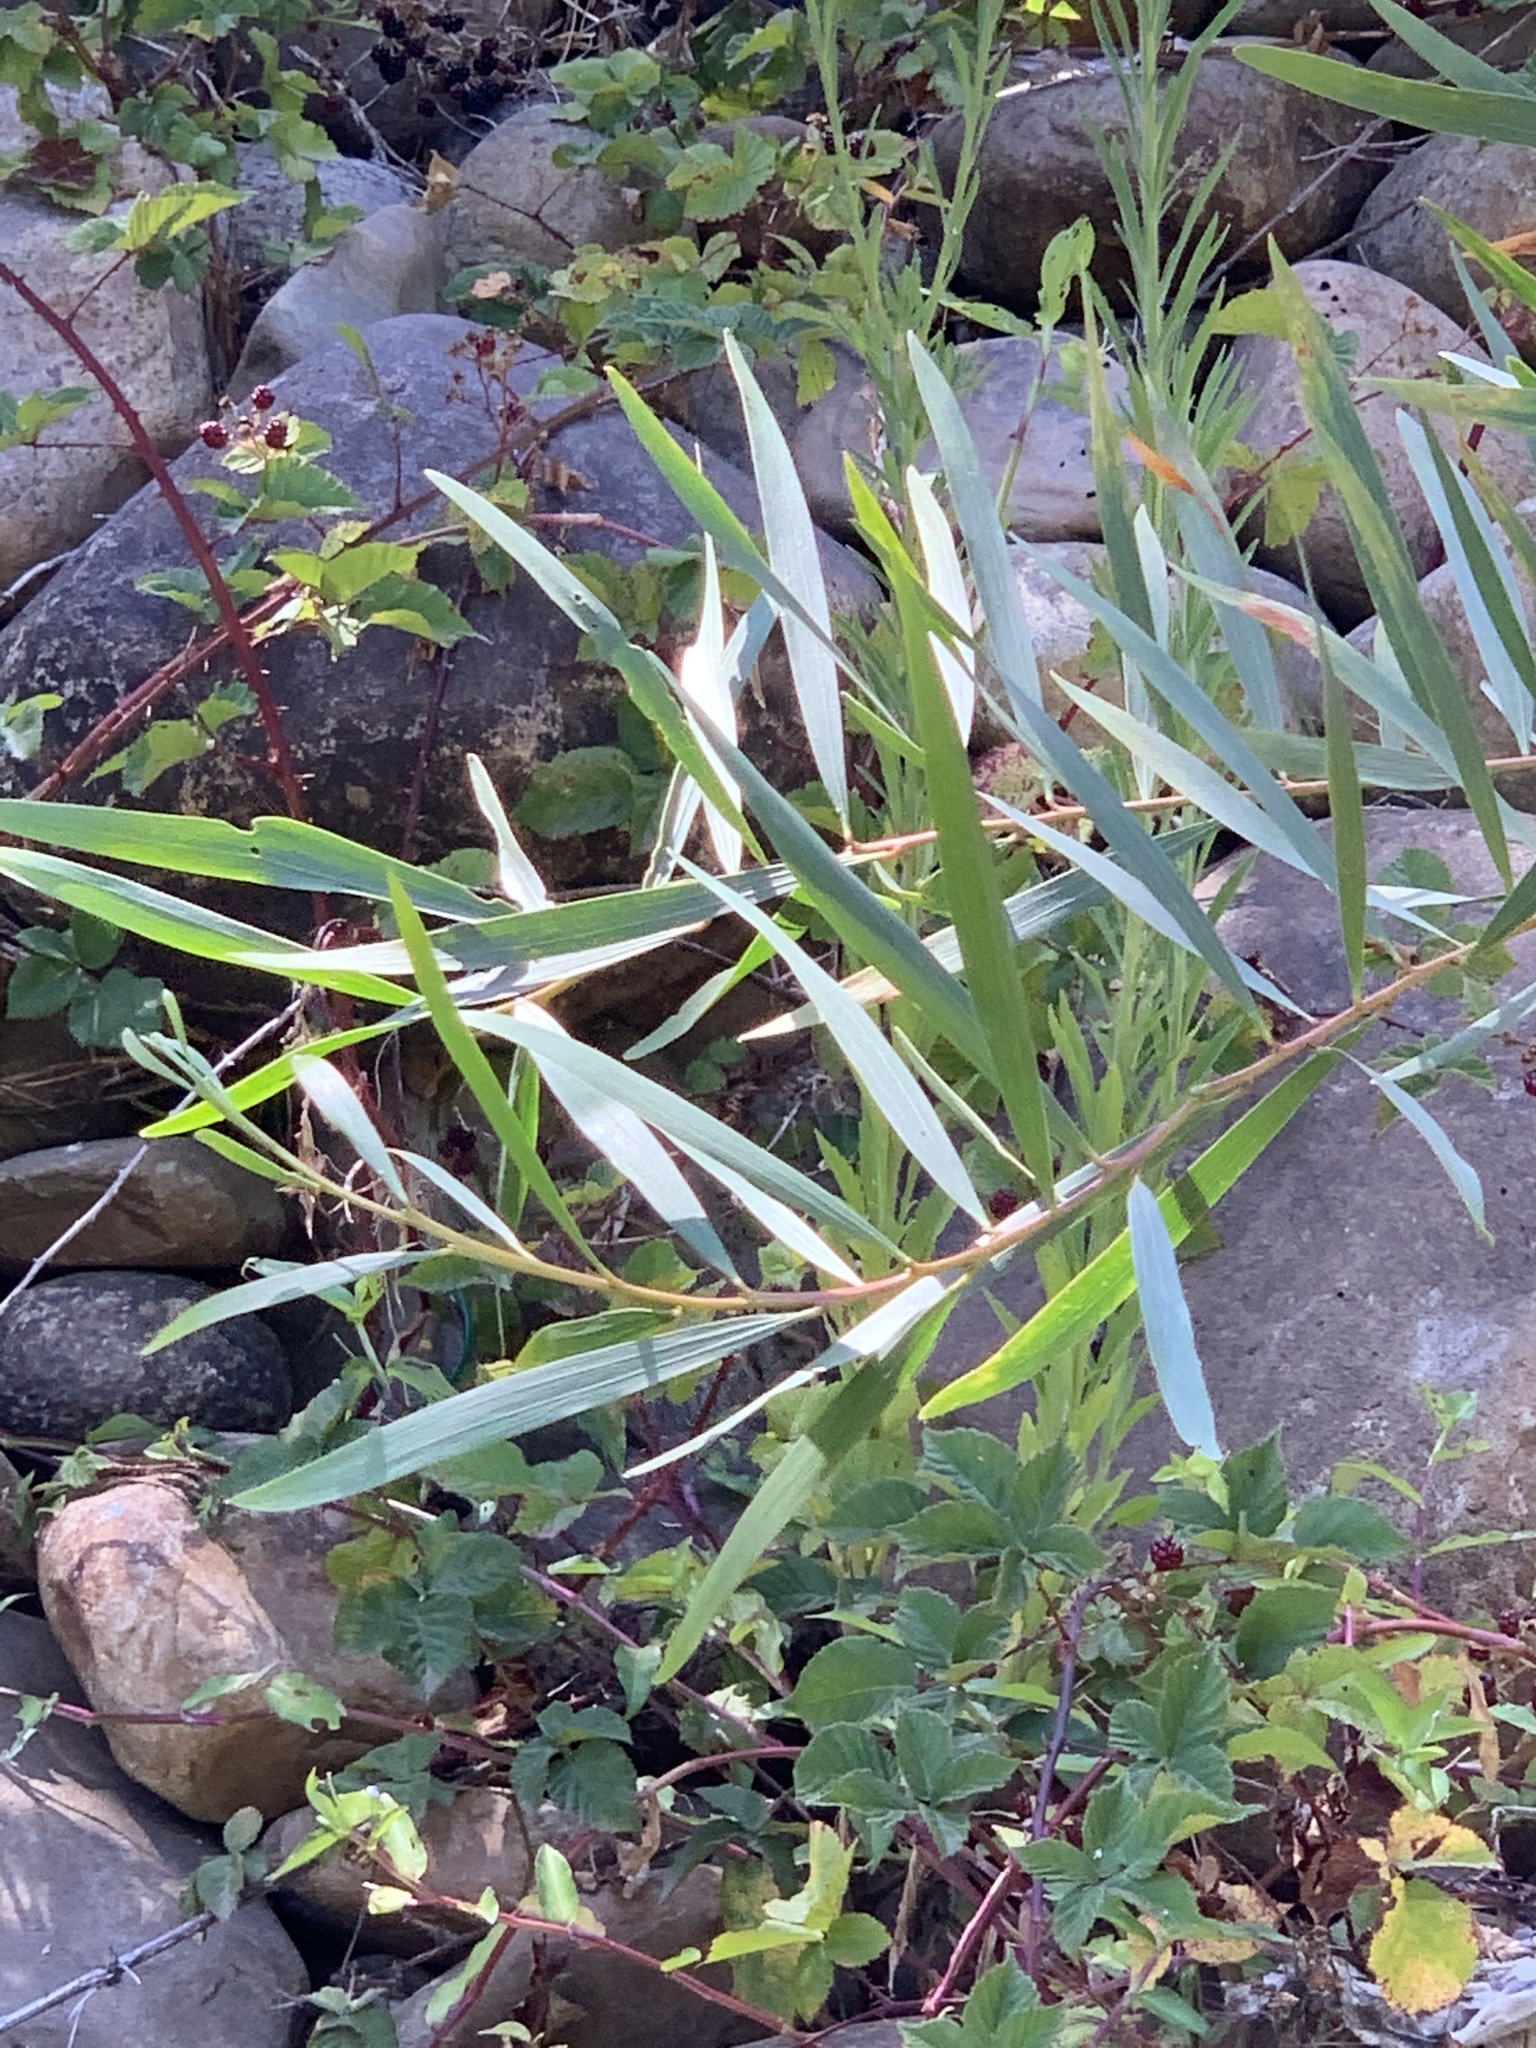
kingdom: Plantae
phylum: Tracheophyta
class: Magnoliopsida
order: Fabales
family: Fabaceae
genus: Acacia
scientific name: Acacia longifolia
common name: Sydney golden wattle
